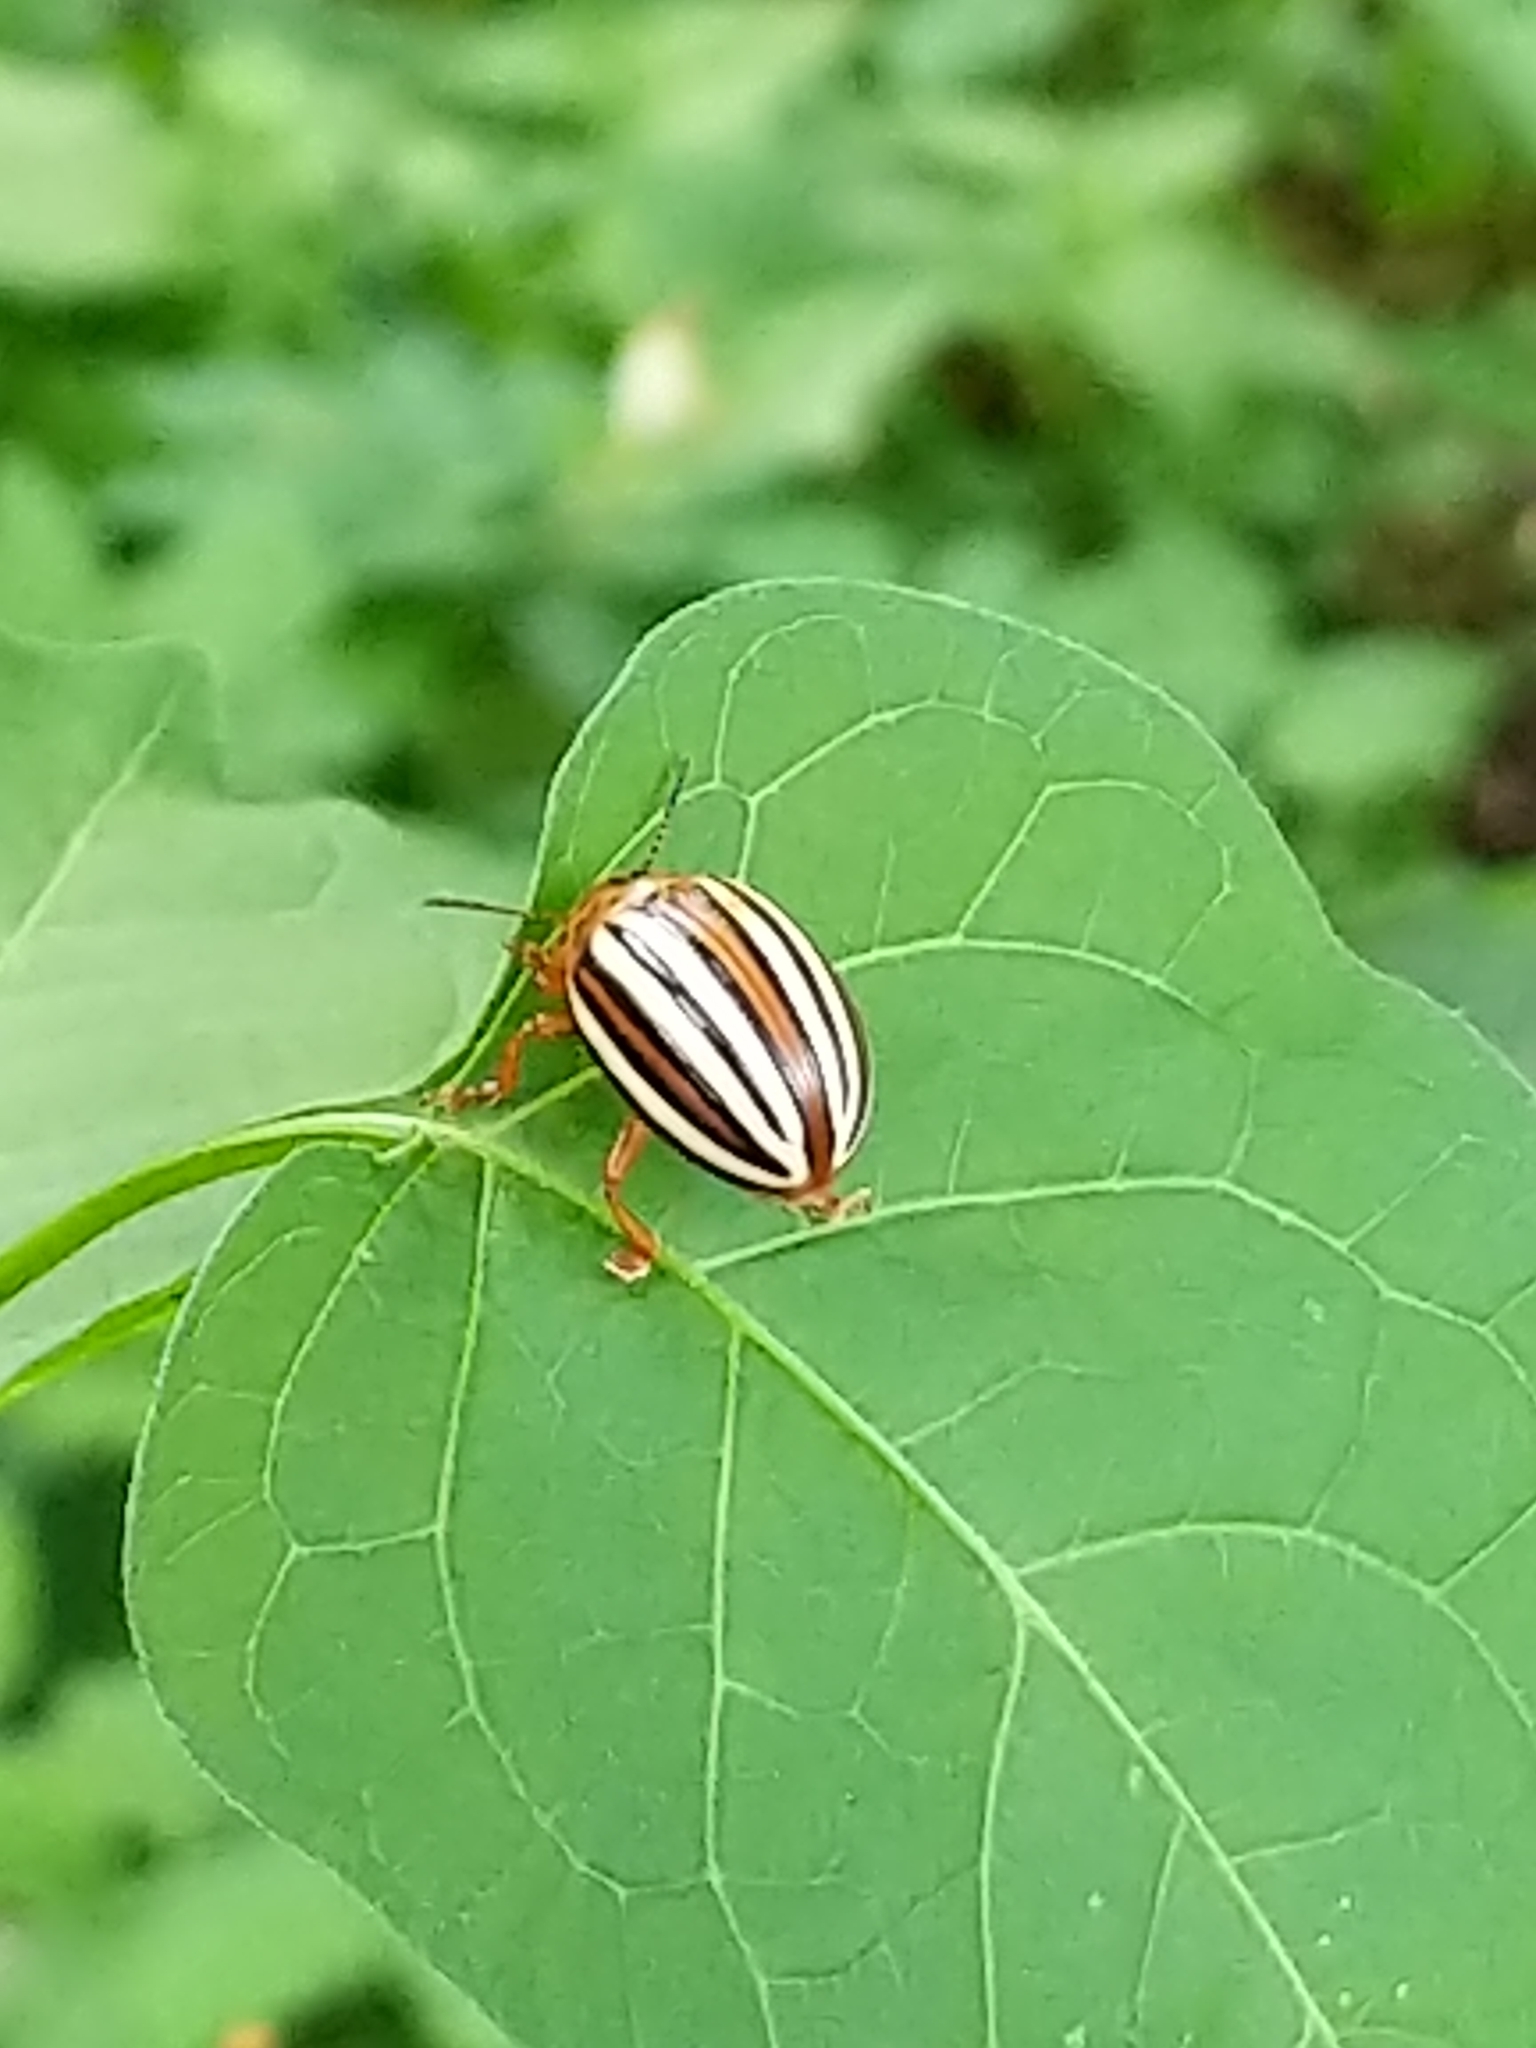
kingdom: Animalia
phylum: Arthropoda
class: Insecta
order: Coleoptera
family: Chrysomelidae
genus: Leptinotarsa
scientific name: Leptinotarsa juncta
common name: False potato beetle
